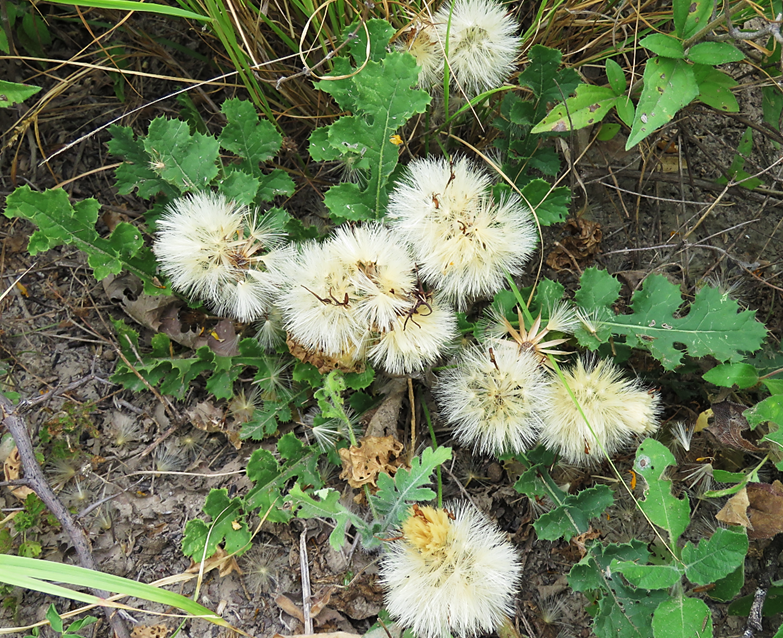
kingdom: Plantae
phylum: Tracheophyta
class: Magnoliopsida
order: Asterales
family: Asteraceae
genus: Acourtia
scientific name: Acourtia runcinata
